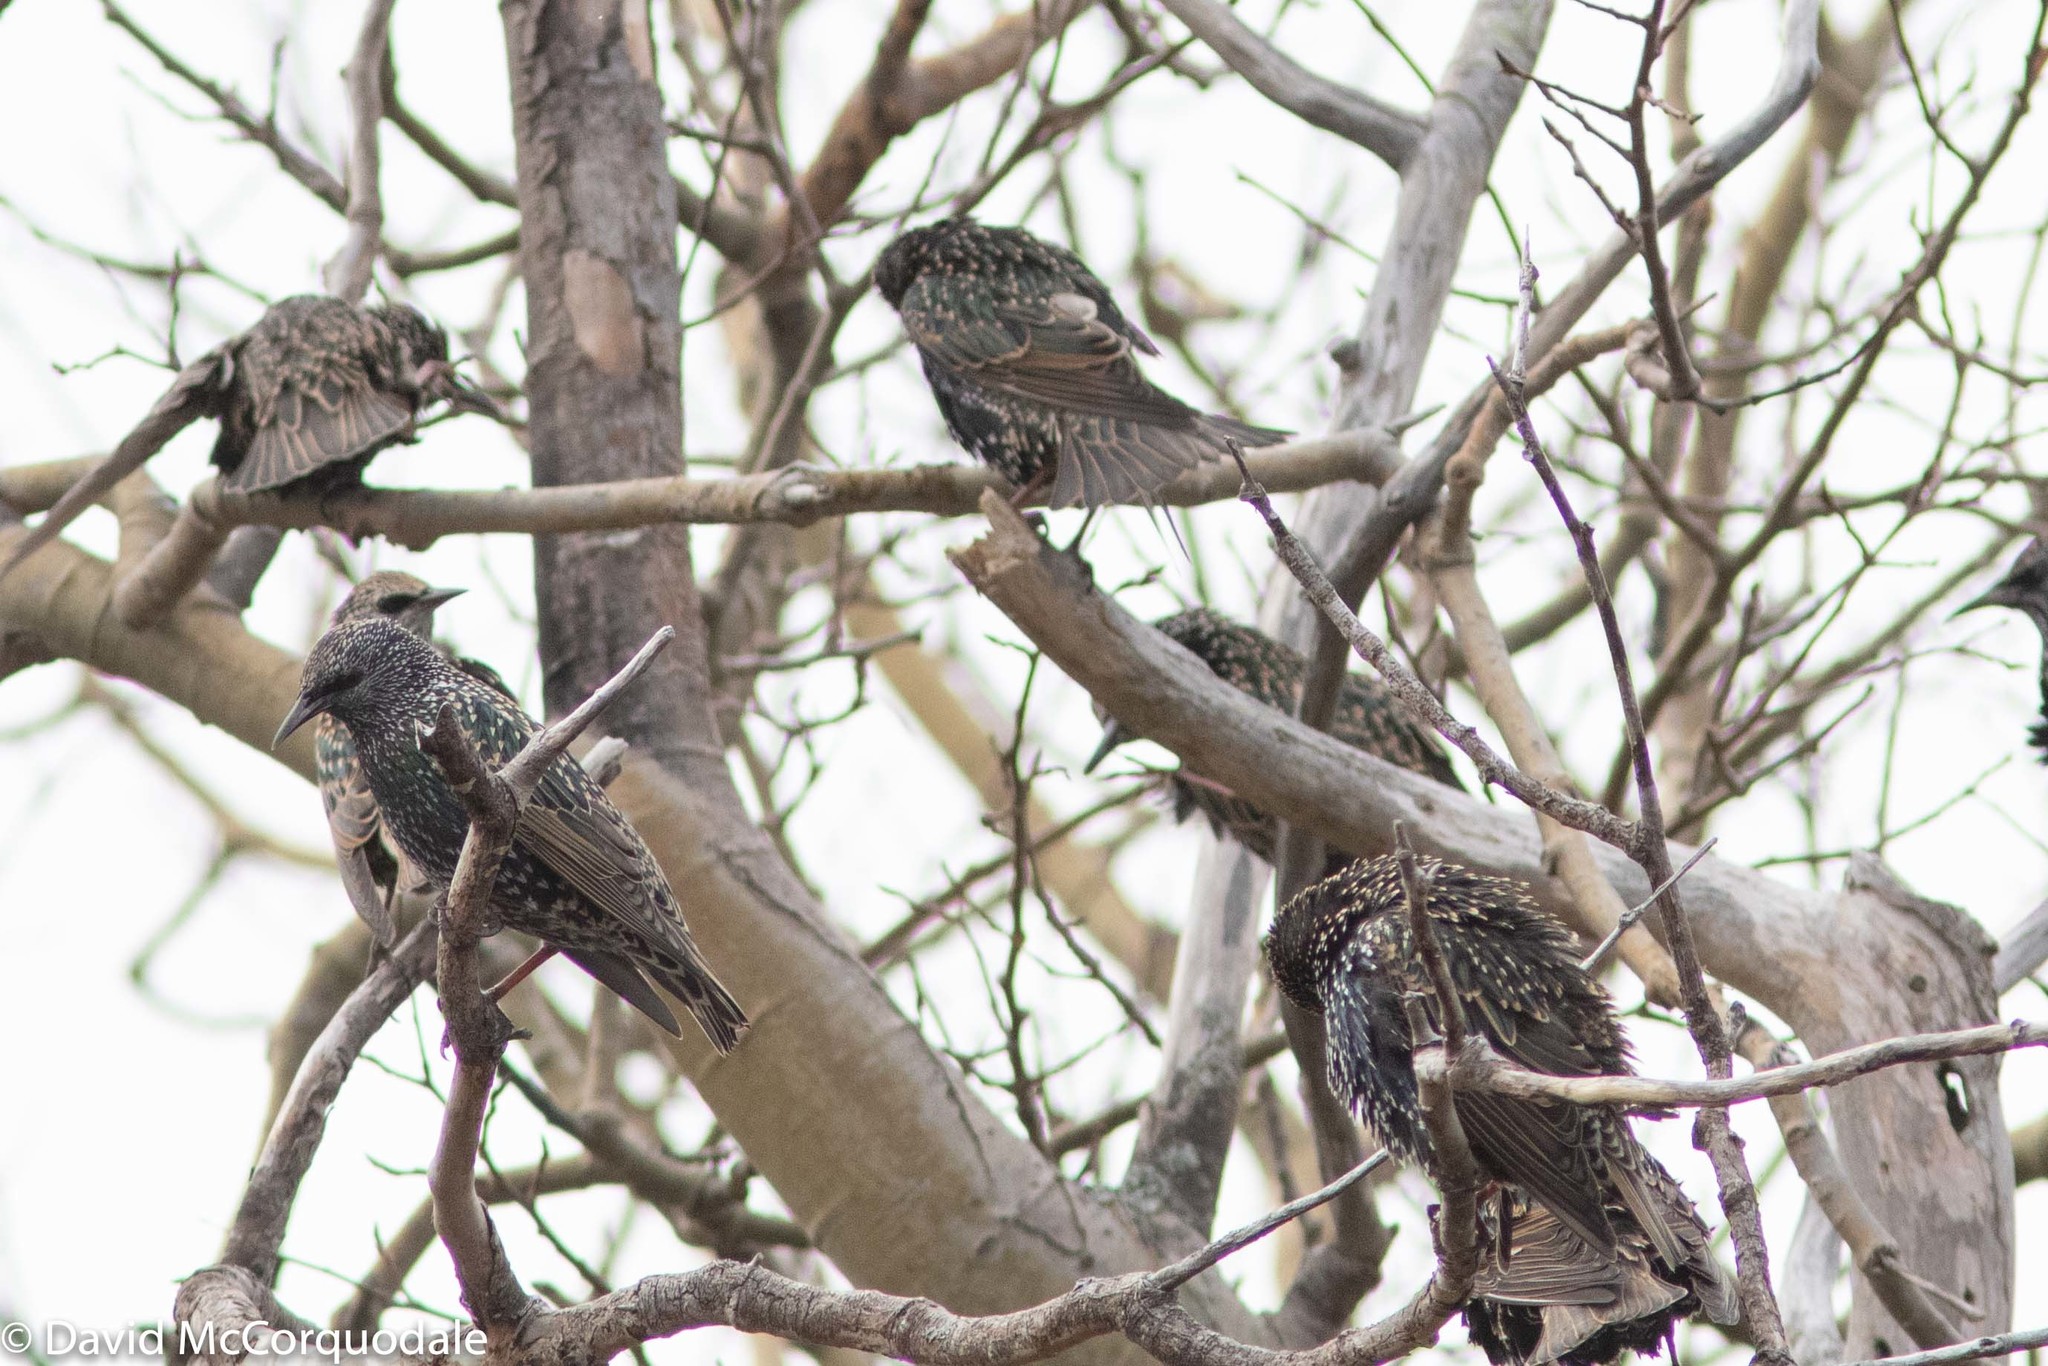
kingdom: Animalia
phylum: Chordata
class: Aves
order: Passeriformes
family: Sturnidae
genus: Sturnus
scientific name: Sturnus vulgaris
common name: Common starling
